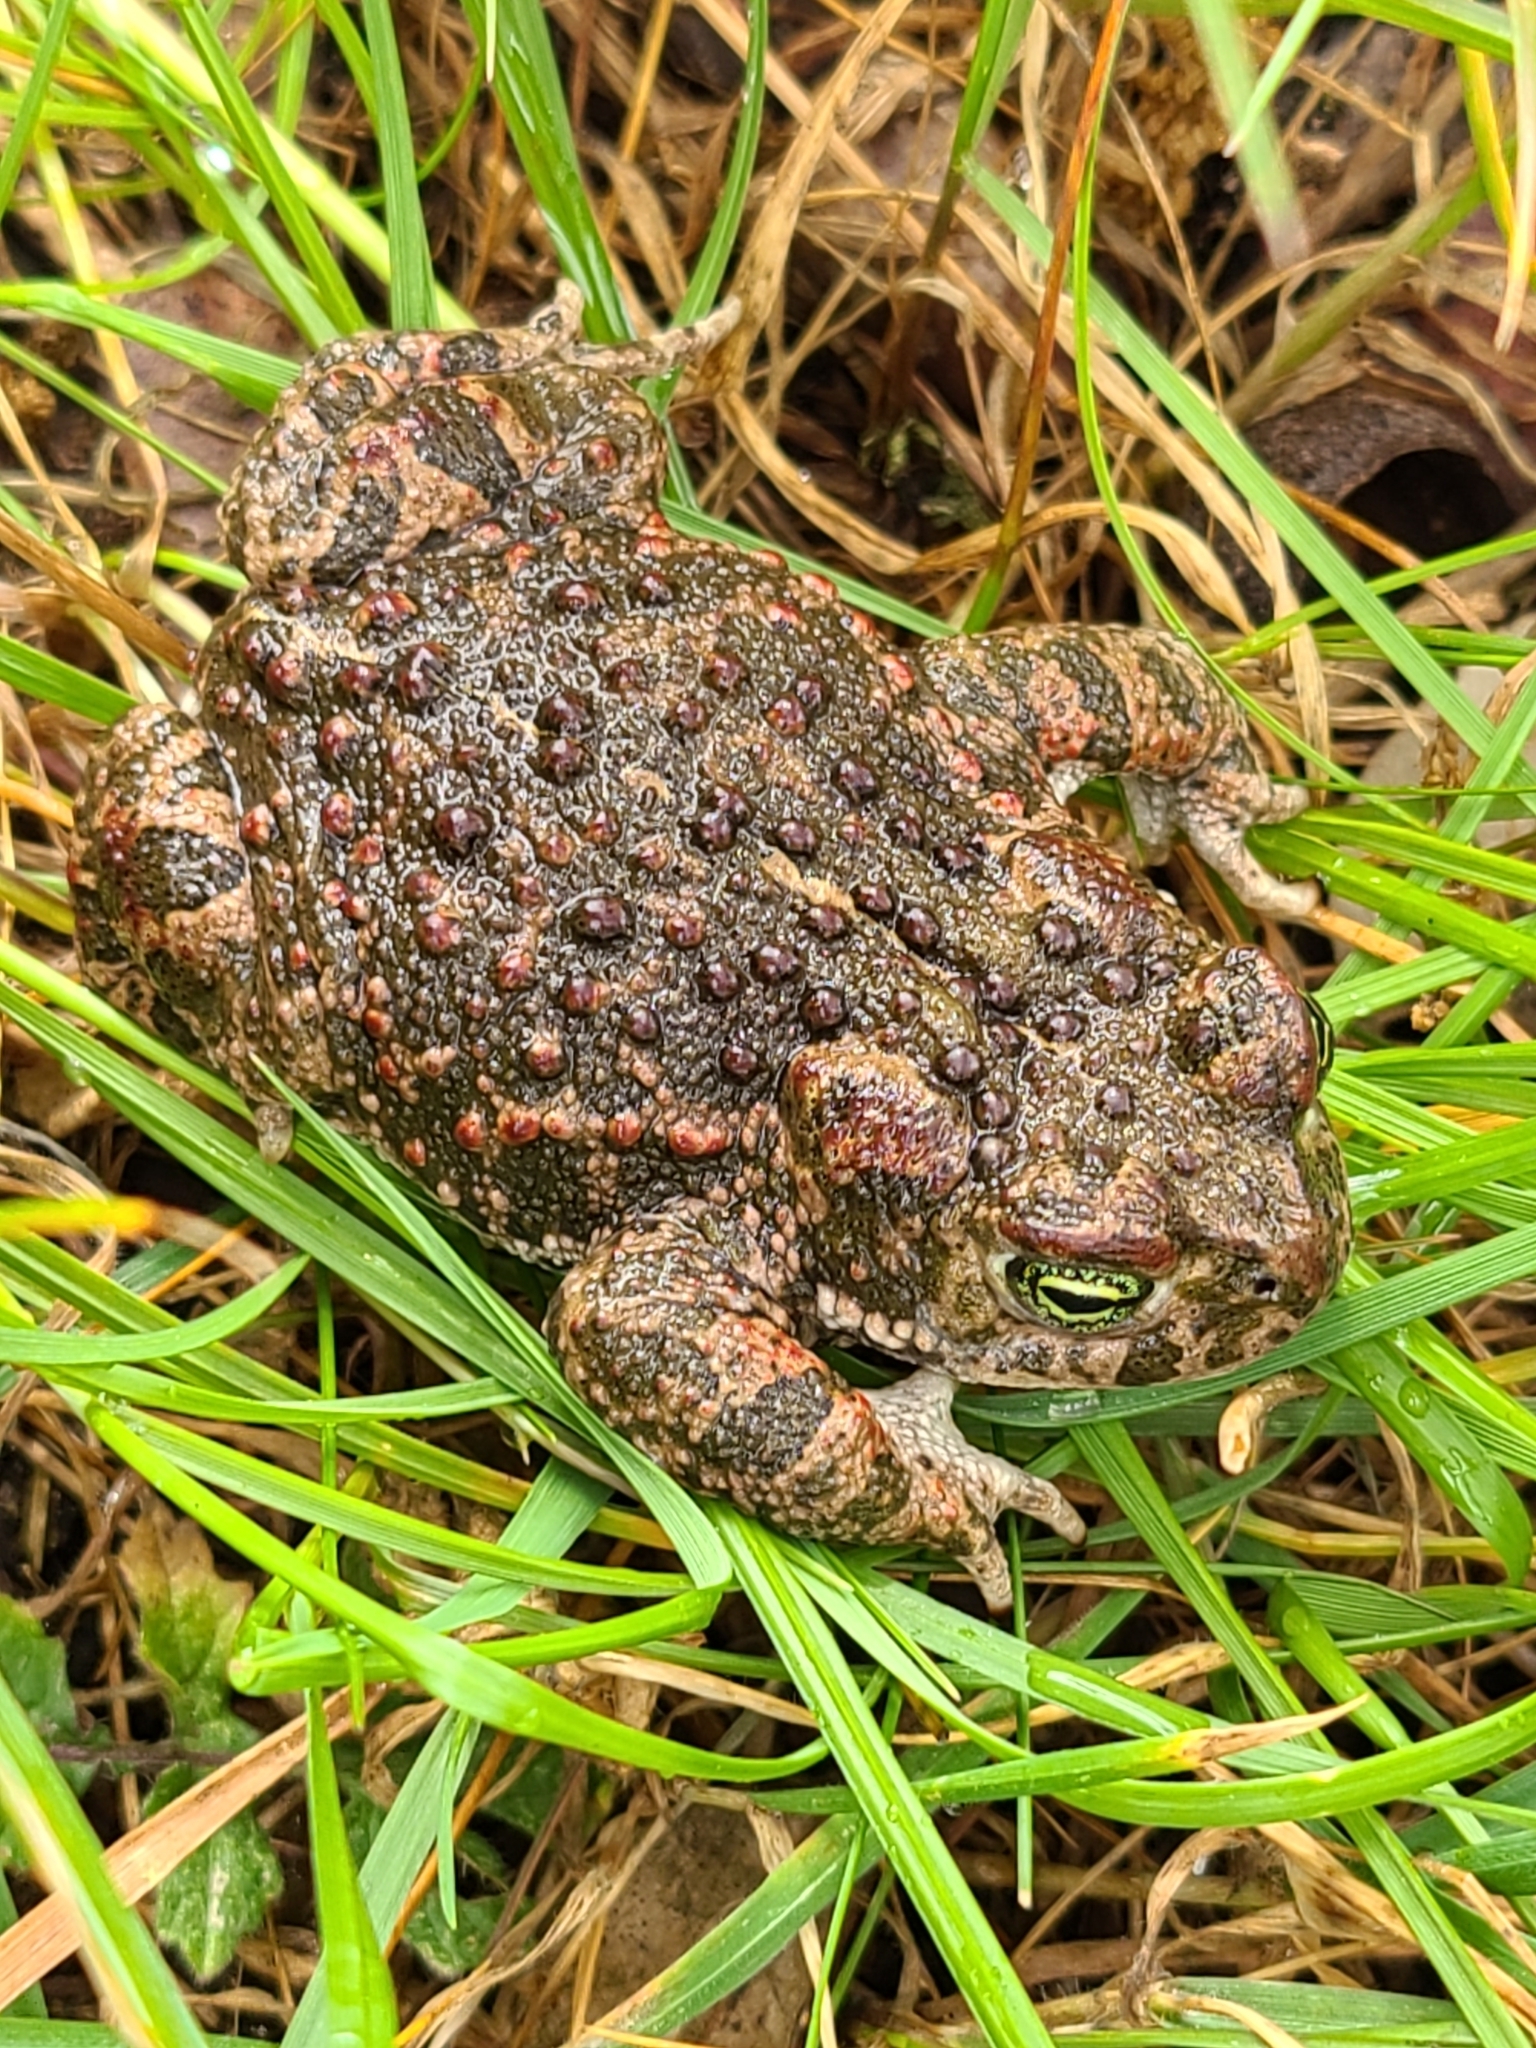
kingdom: Animalia
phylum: Chordata
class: Amphibia
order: Anura
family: Bufonidae
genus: Epidalea
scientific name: Epidalea calamita
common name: Natterjack toad
